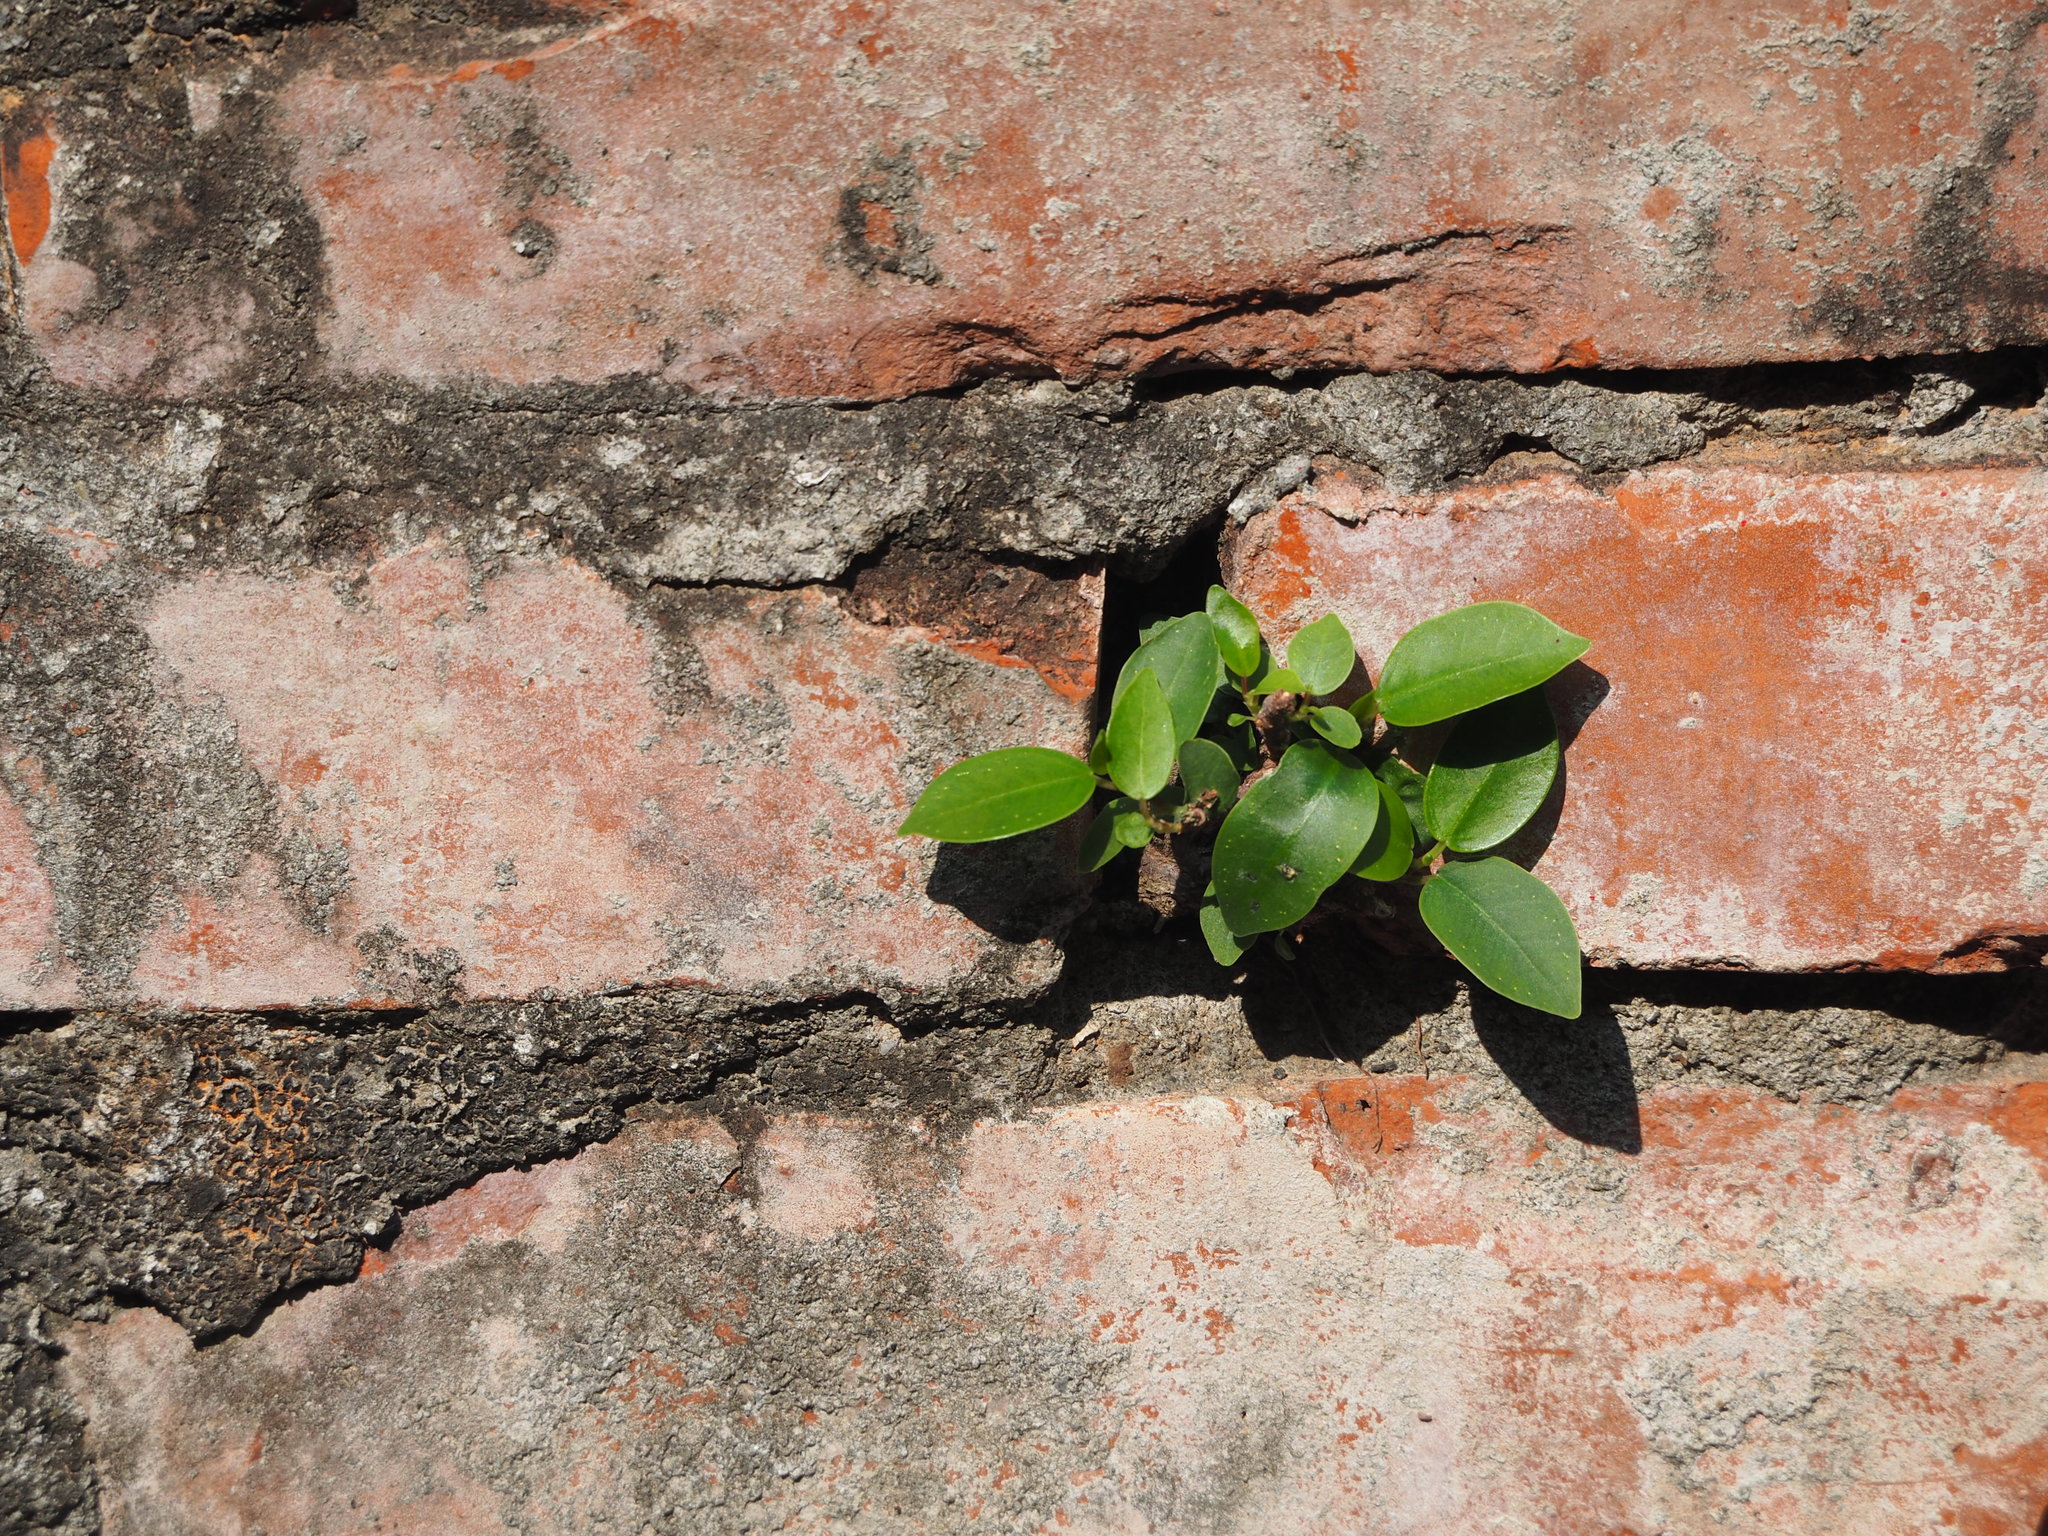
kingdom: Plantae
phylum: Tracheophyta
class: Magnoliopsida
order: Rosales
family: Moraceae
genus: Ficus
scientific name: Ficus microcarpa
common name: Chinese banyan
